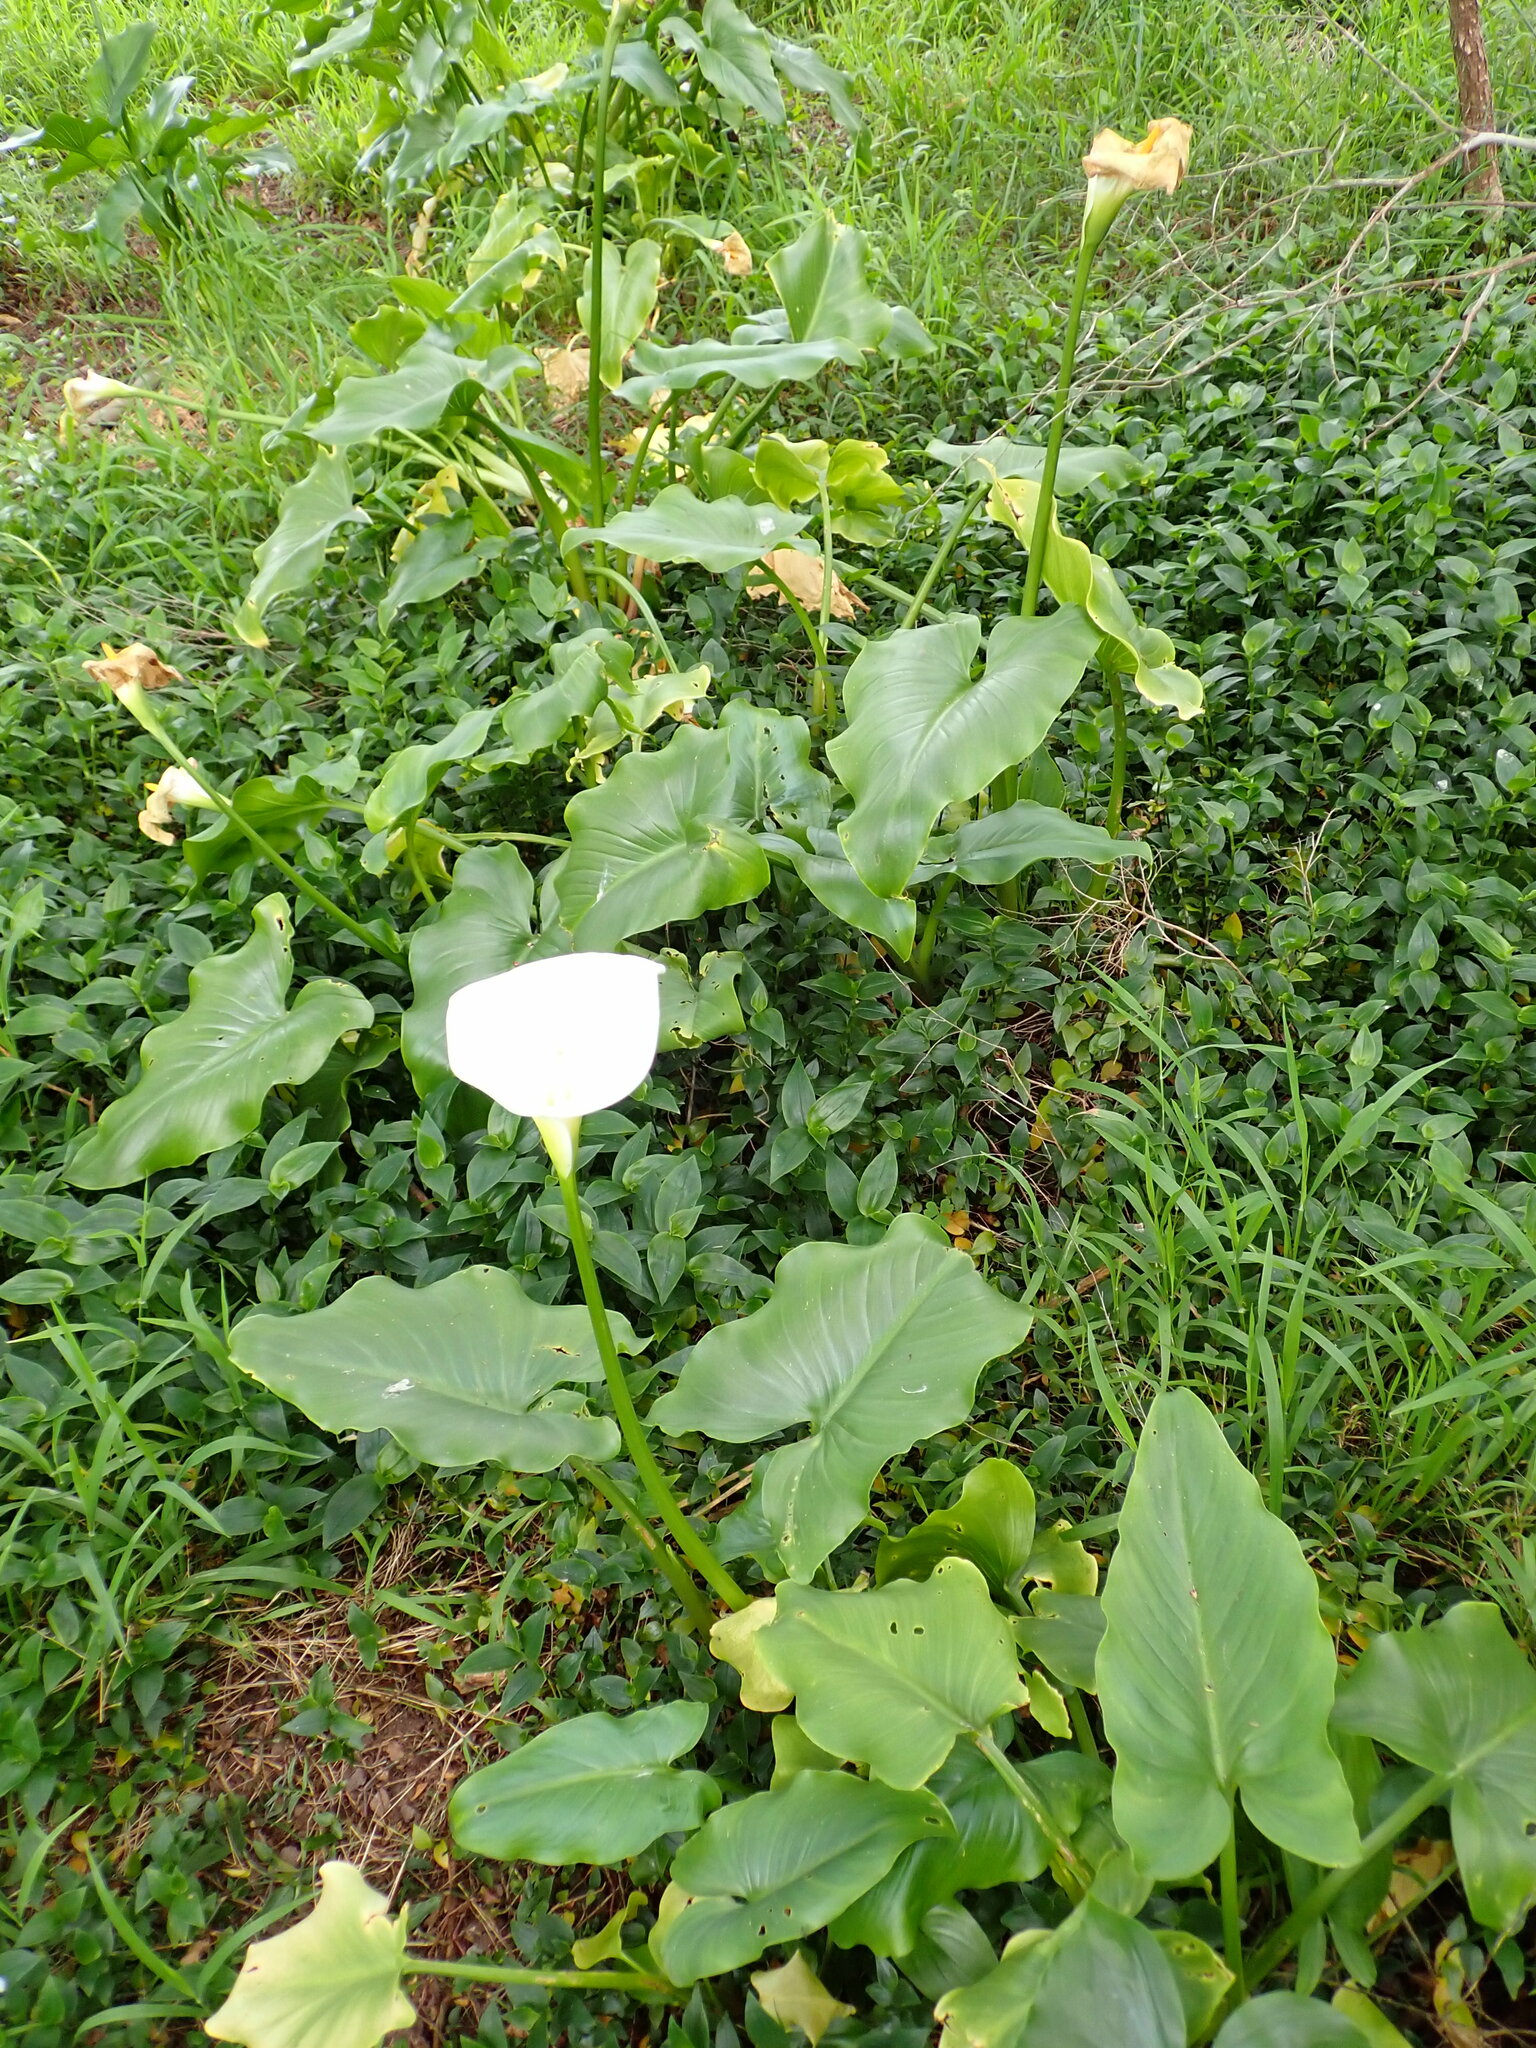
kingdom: Plantae
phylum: Tracheophyta
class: Liliopsida
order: Alismatales
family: Araceae
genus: Zantedeschia
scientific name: Zantedeschia aethiopica
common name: Altar-lily
